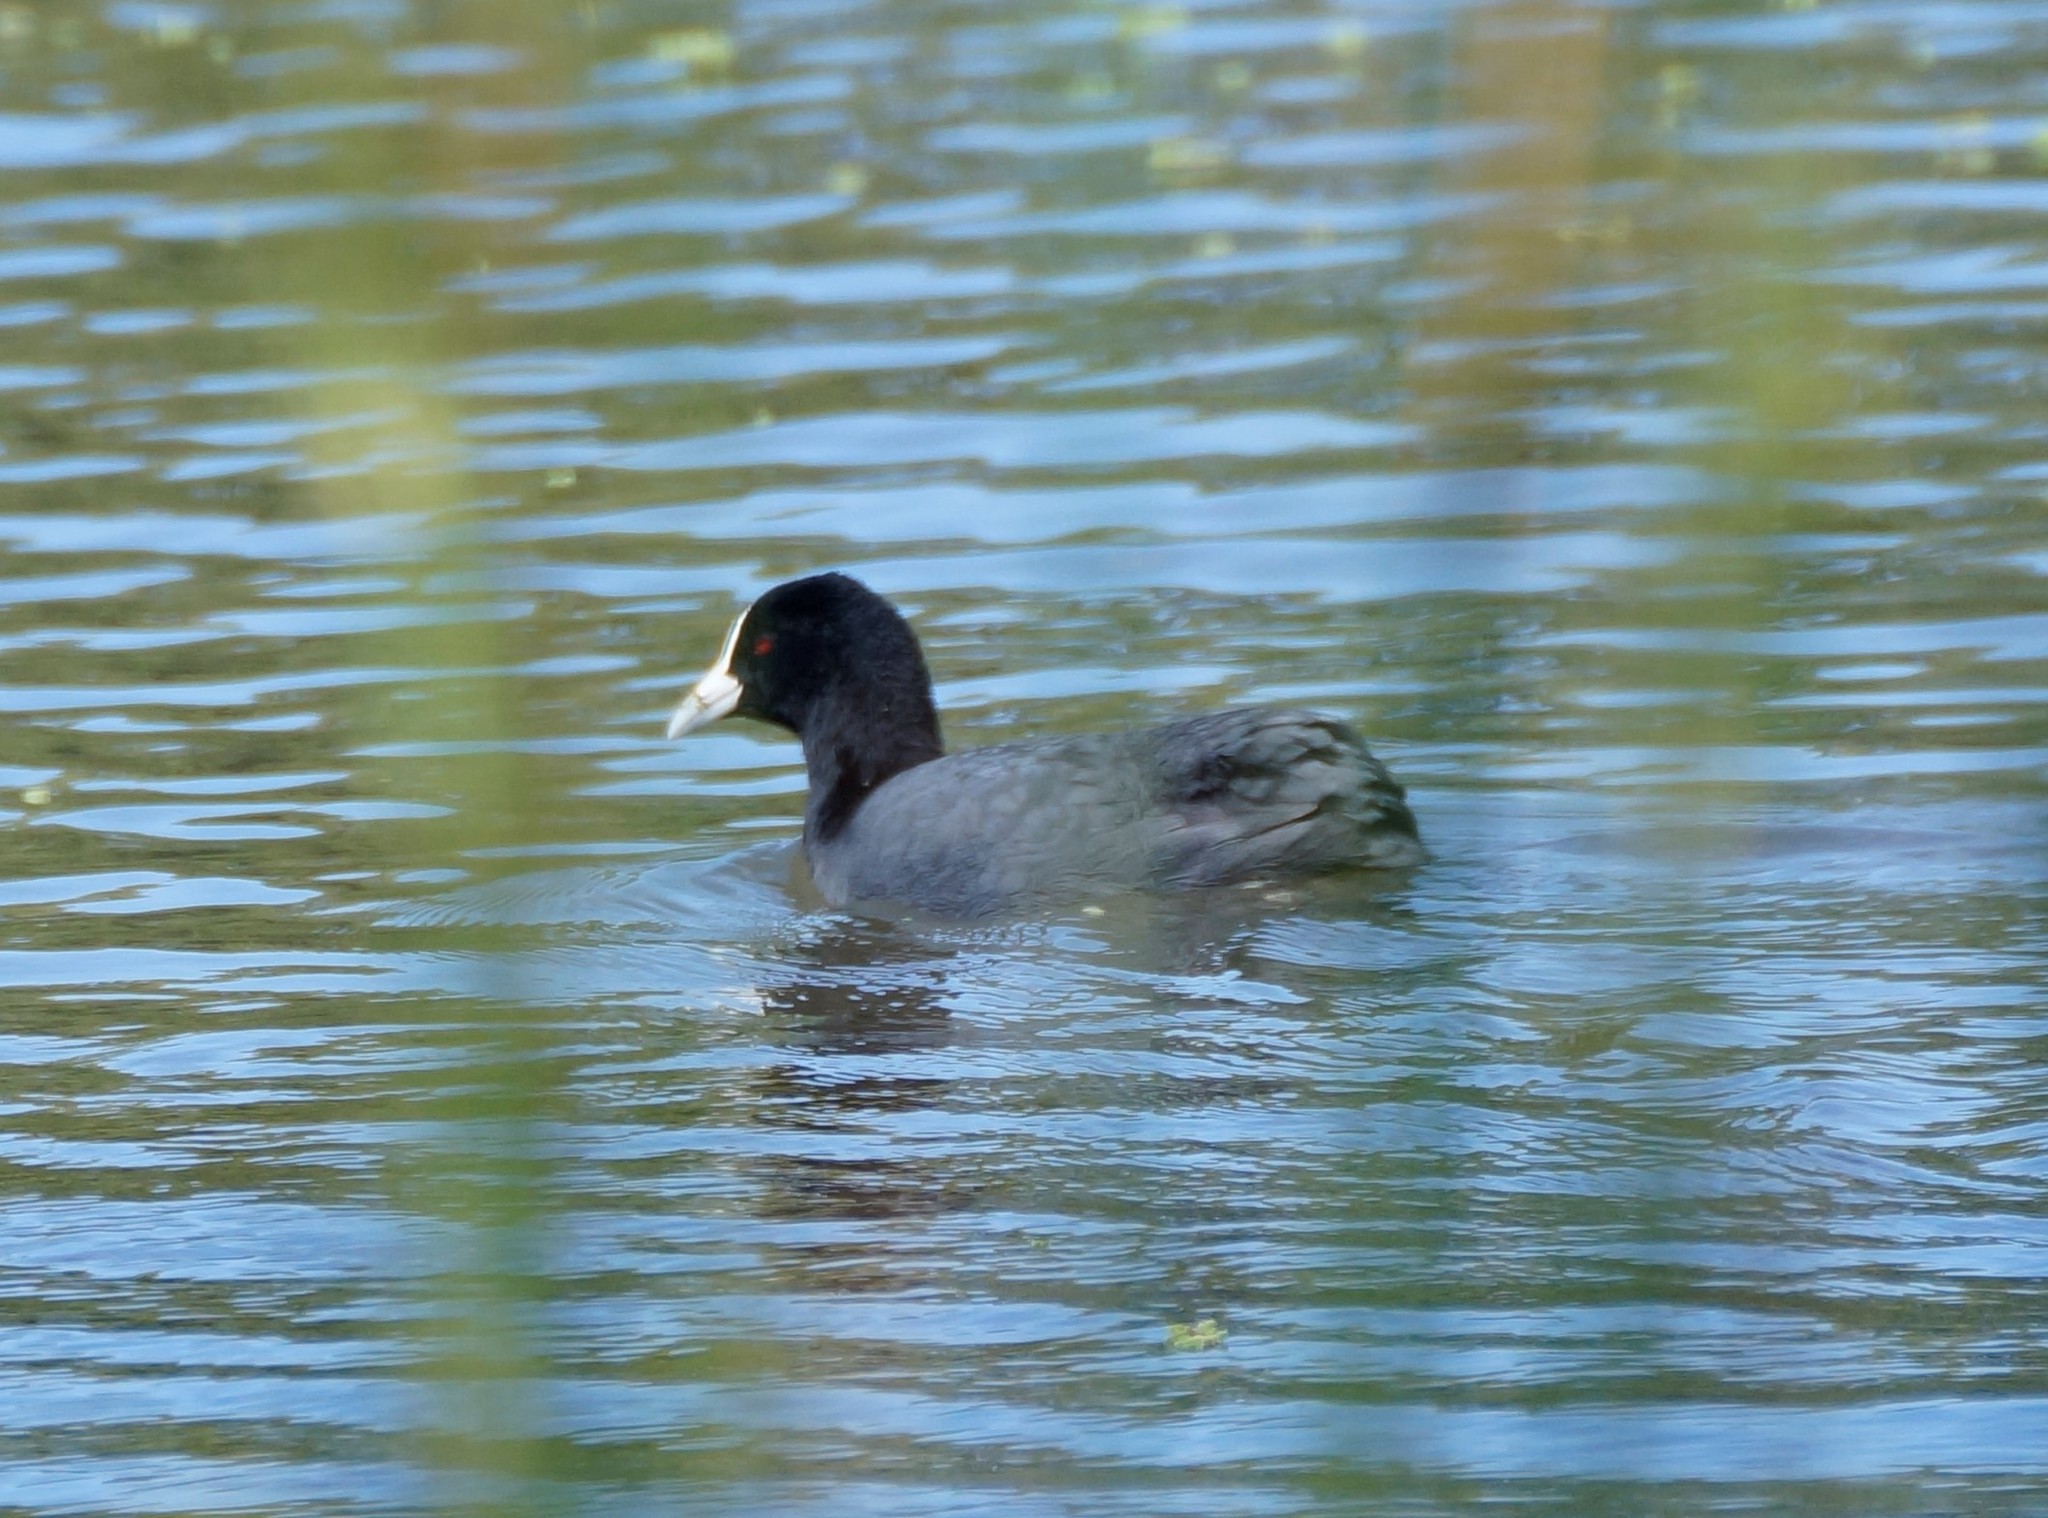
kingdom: Animalia
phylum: Chordata
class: Aves
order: Gruiformes
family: Rallidae
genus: Fulica
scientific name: Fulica atra
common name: Eurasian coot
